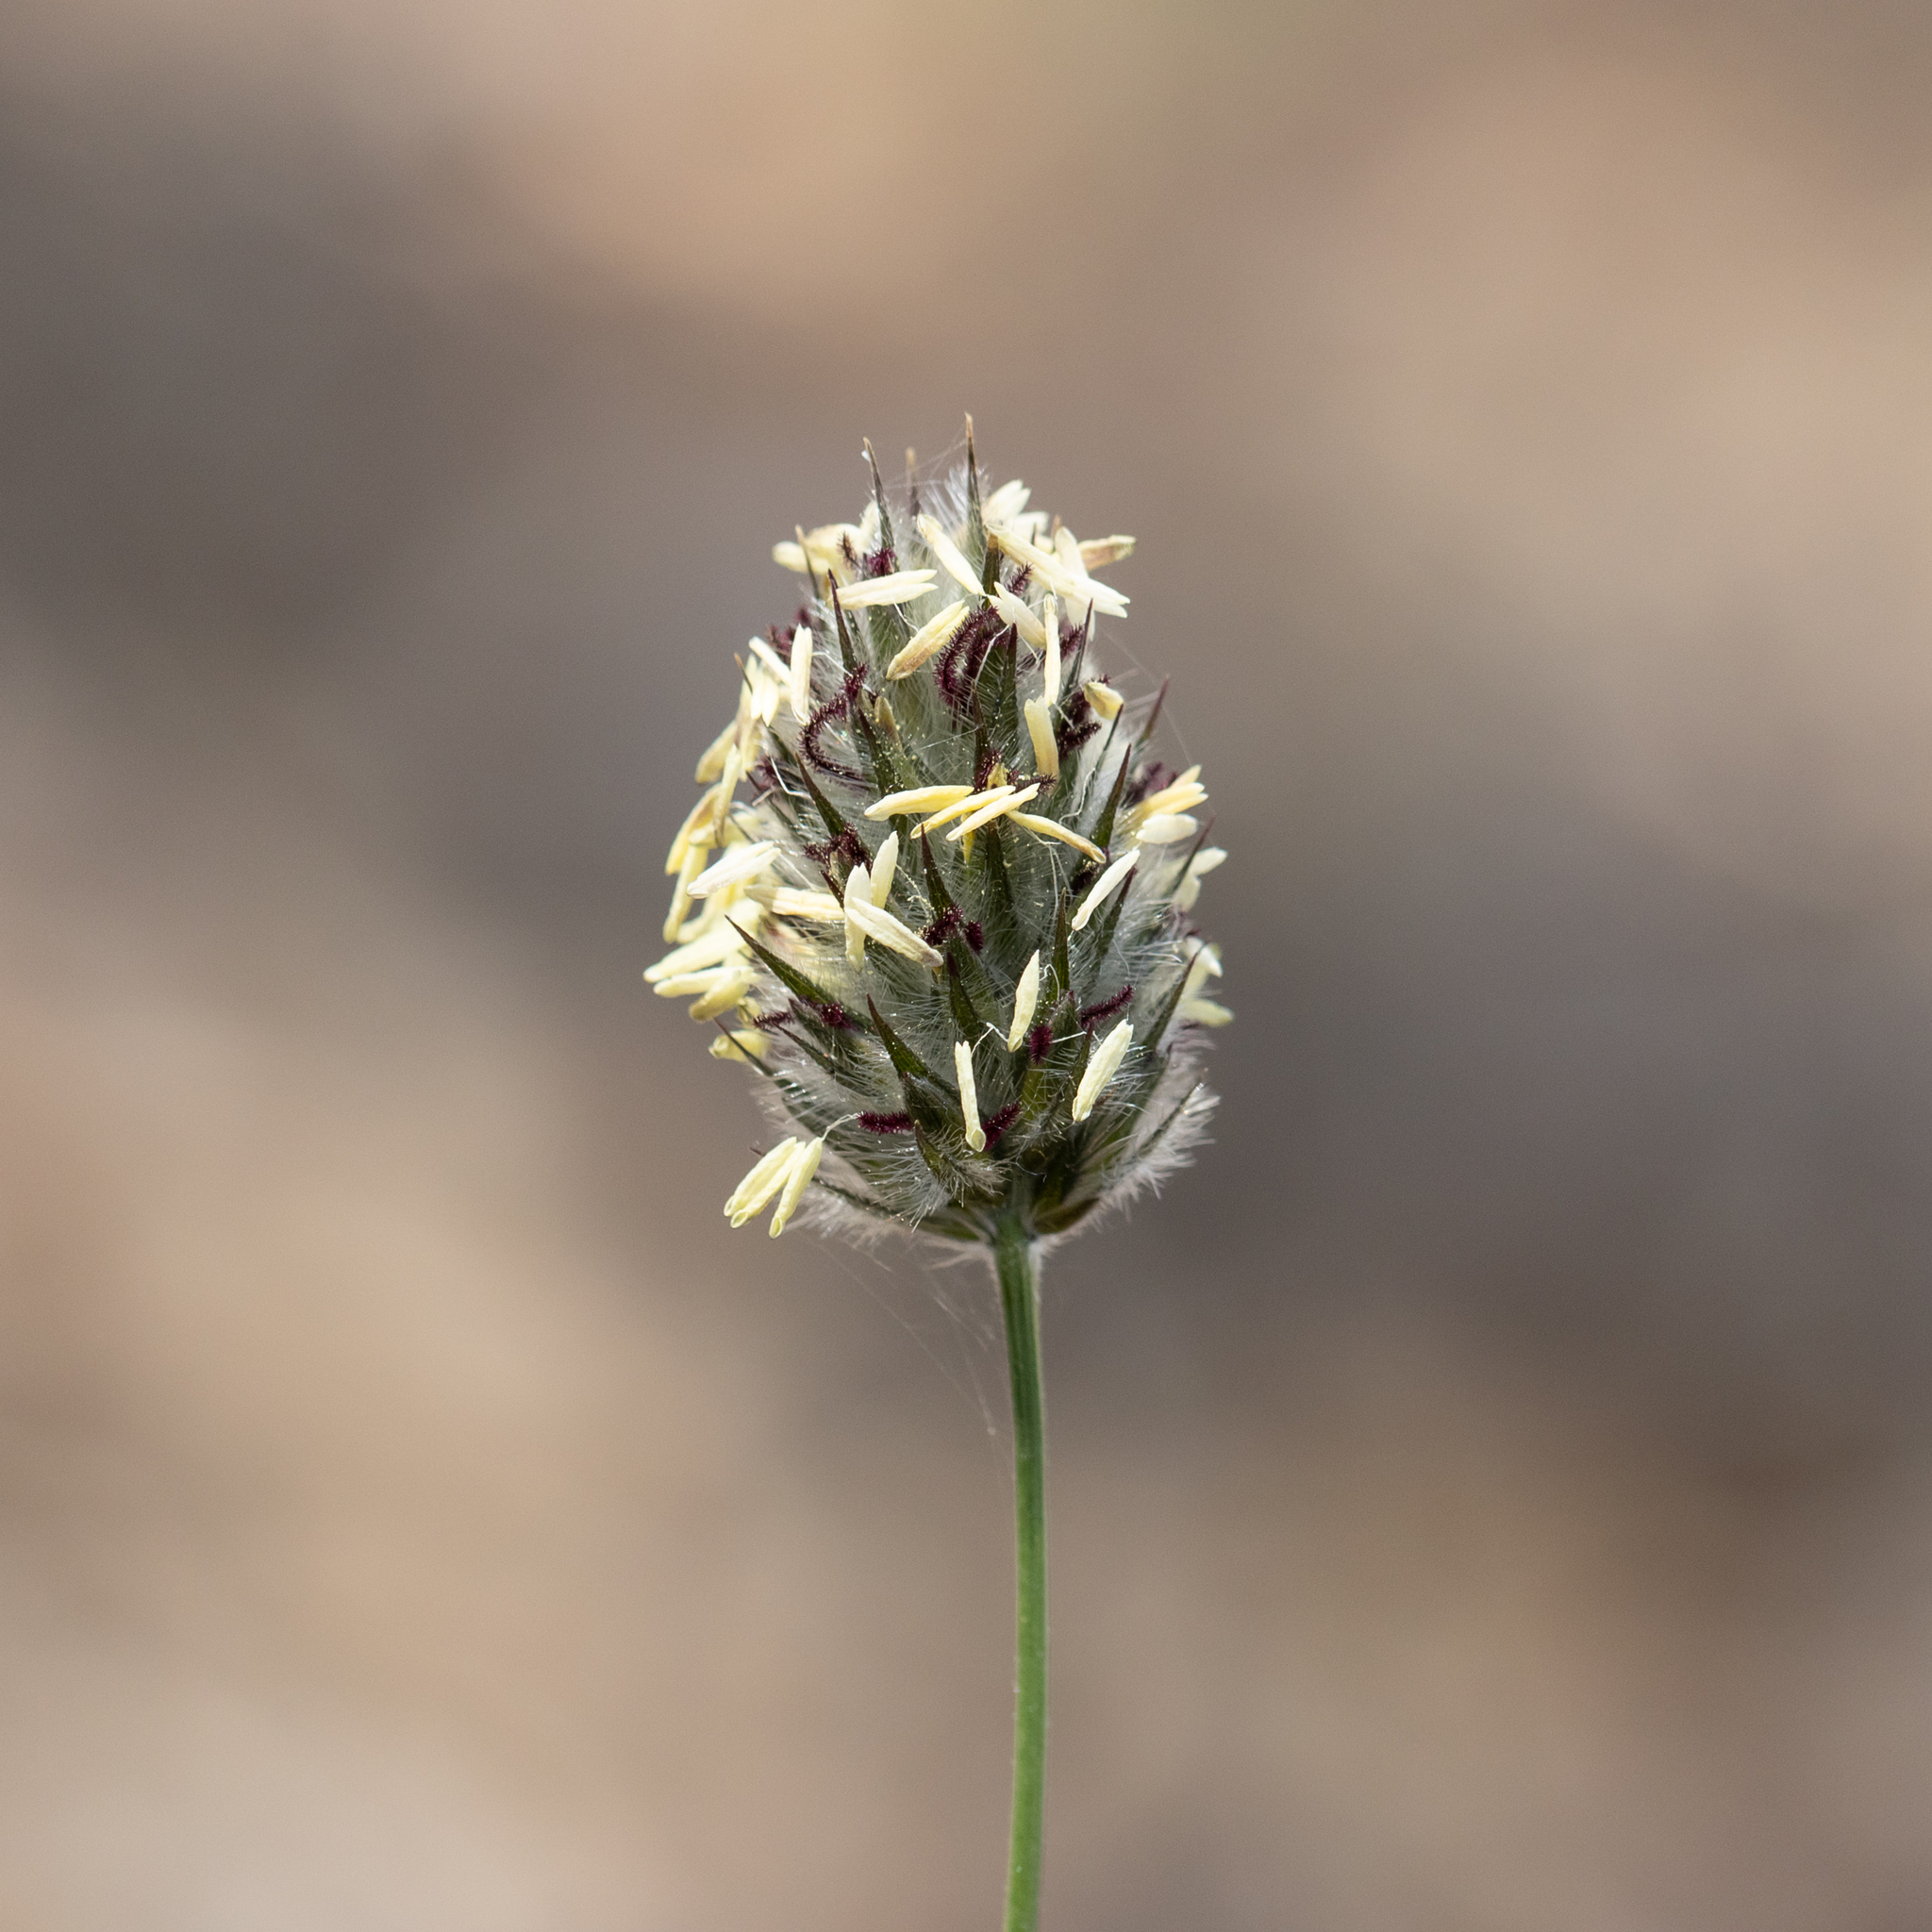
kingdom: Plantae
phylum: Tracheophyta
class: Liliopsida
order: Poales
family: Poaceae
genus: Neurachne
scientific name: Neurachne alopecuroidea
